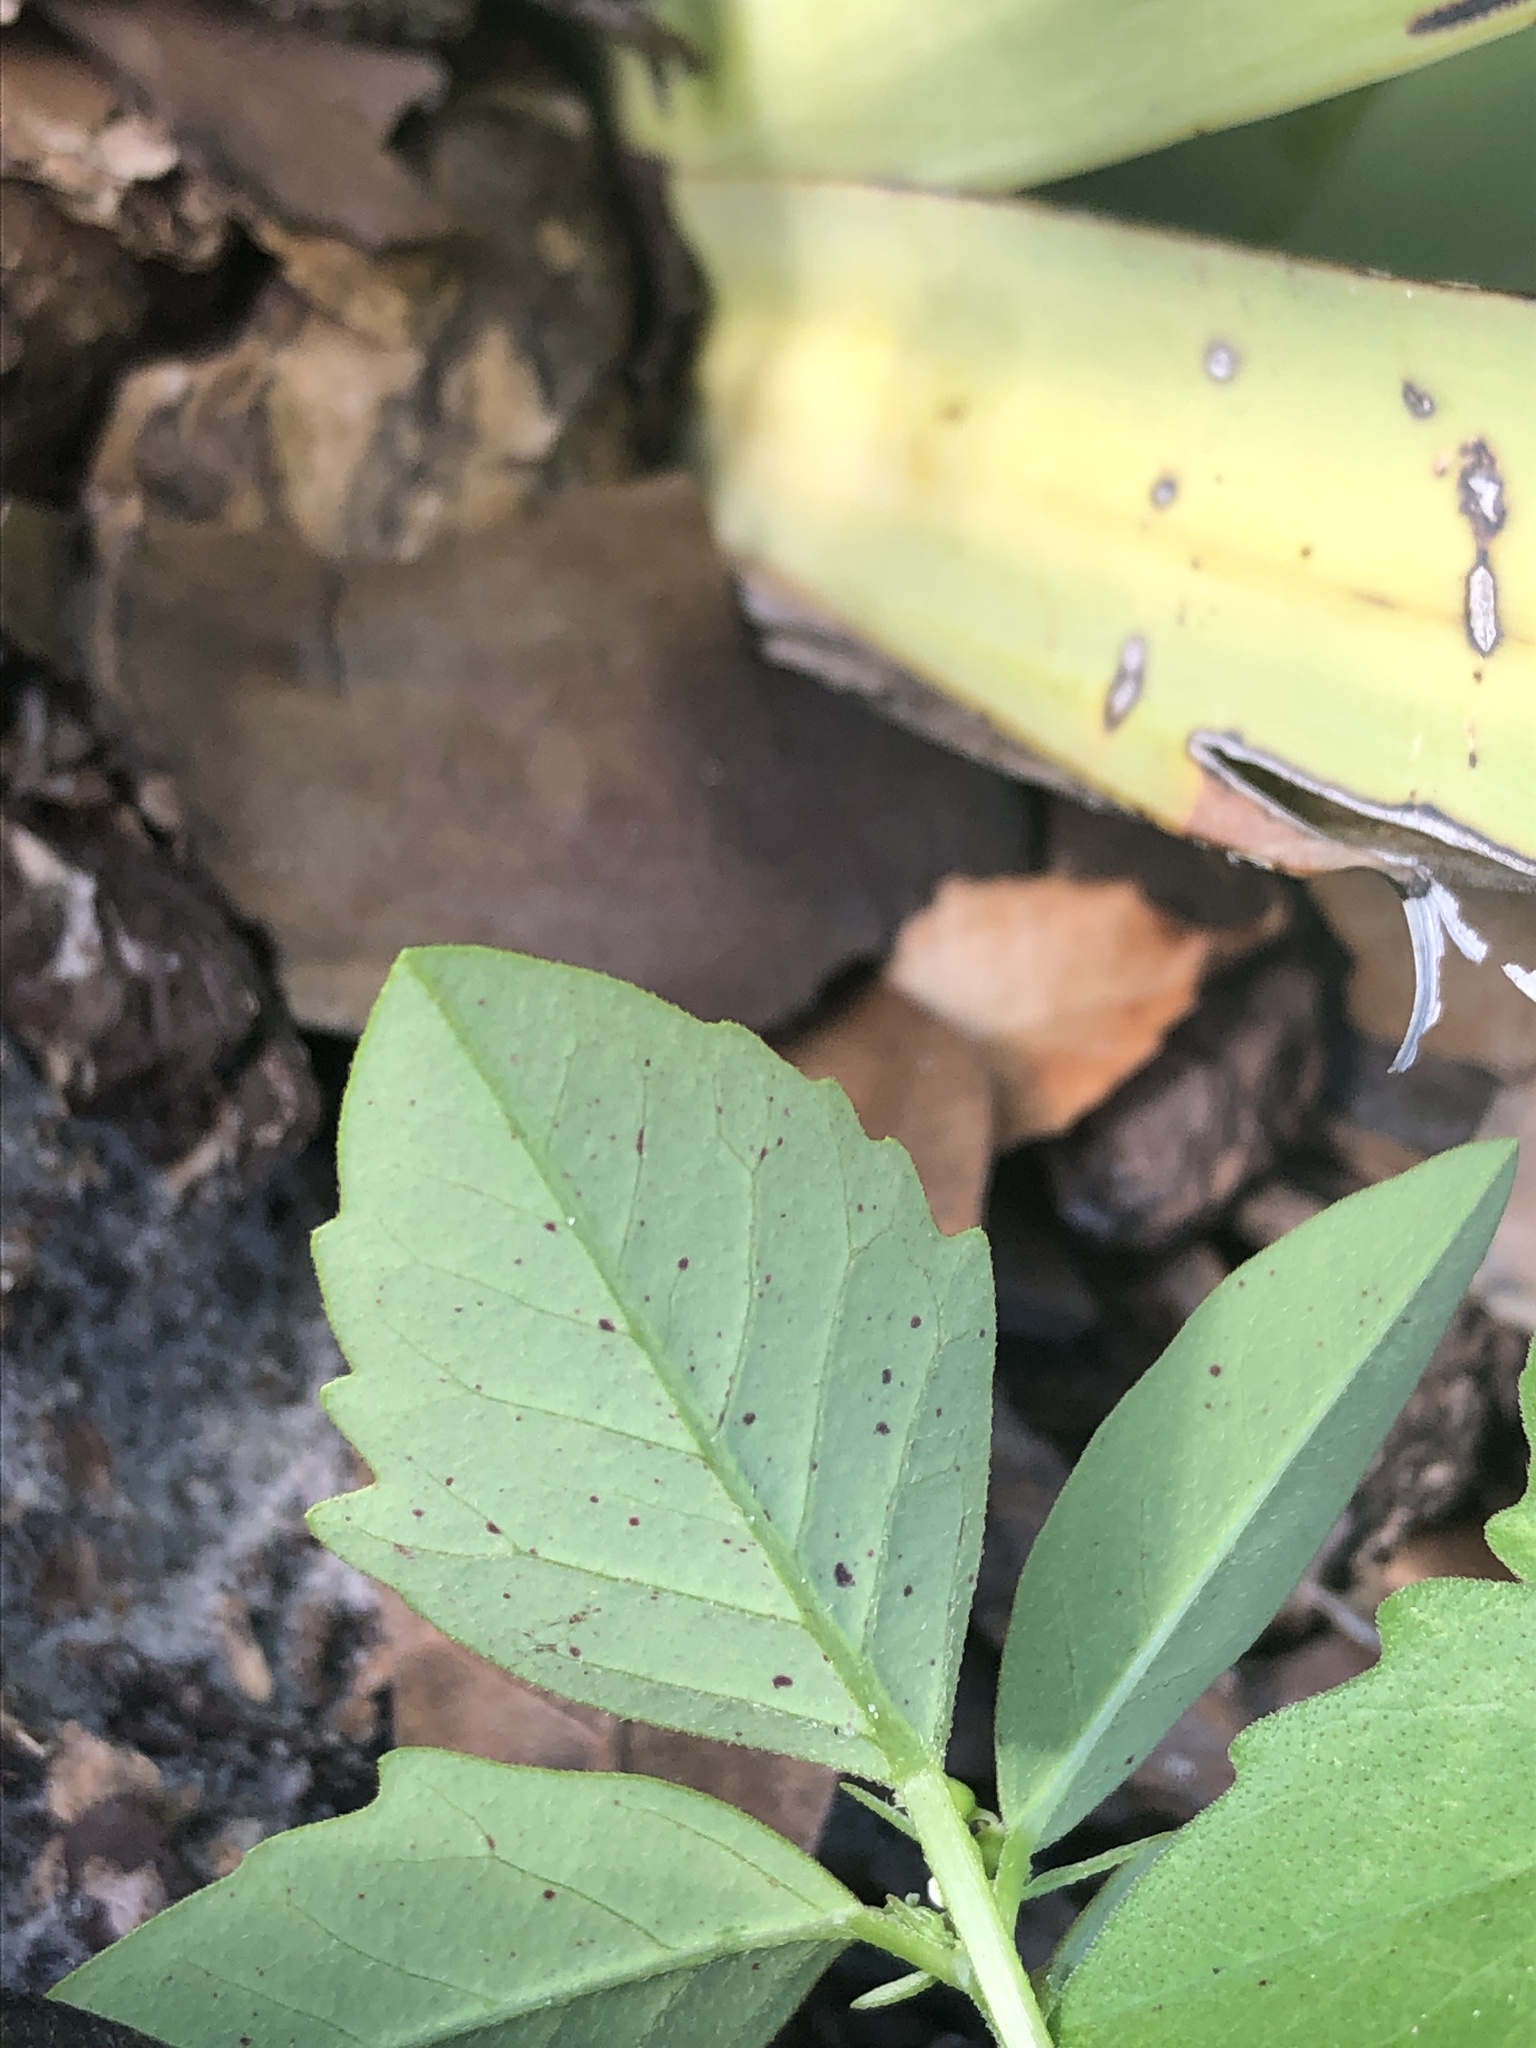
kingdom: Plantae
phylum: Tracheophyta
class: Magnoliopsida
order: Malpighiales
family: Euphorbiaceae
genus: Euphorbia
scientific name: Euphorbia graminea
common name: Grassleaf spurge
